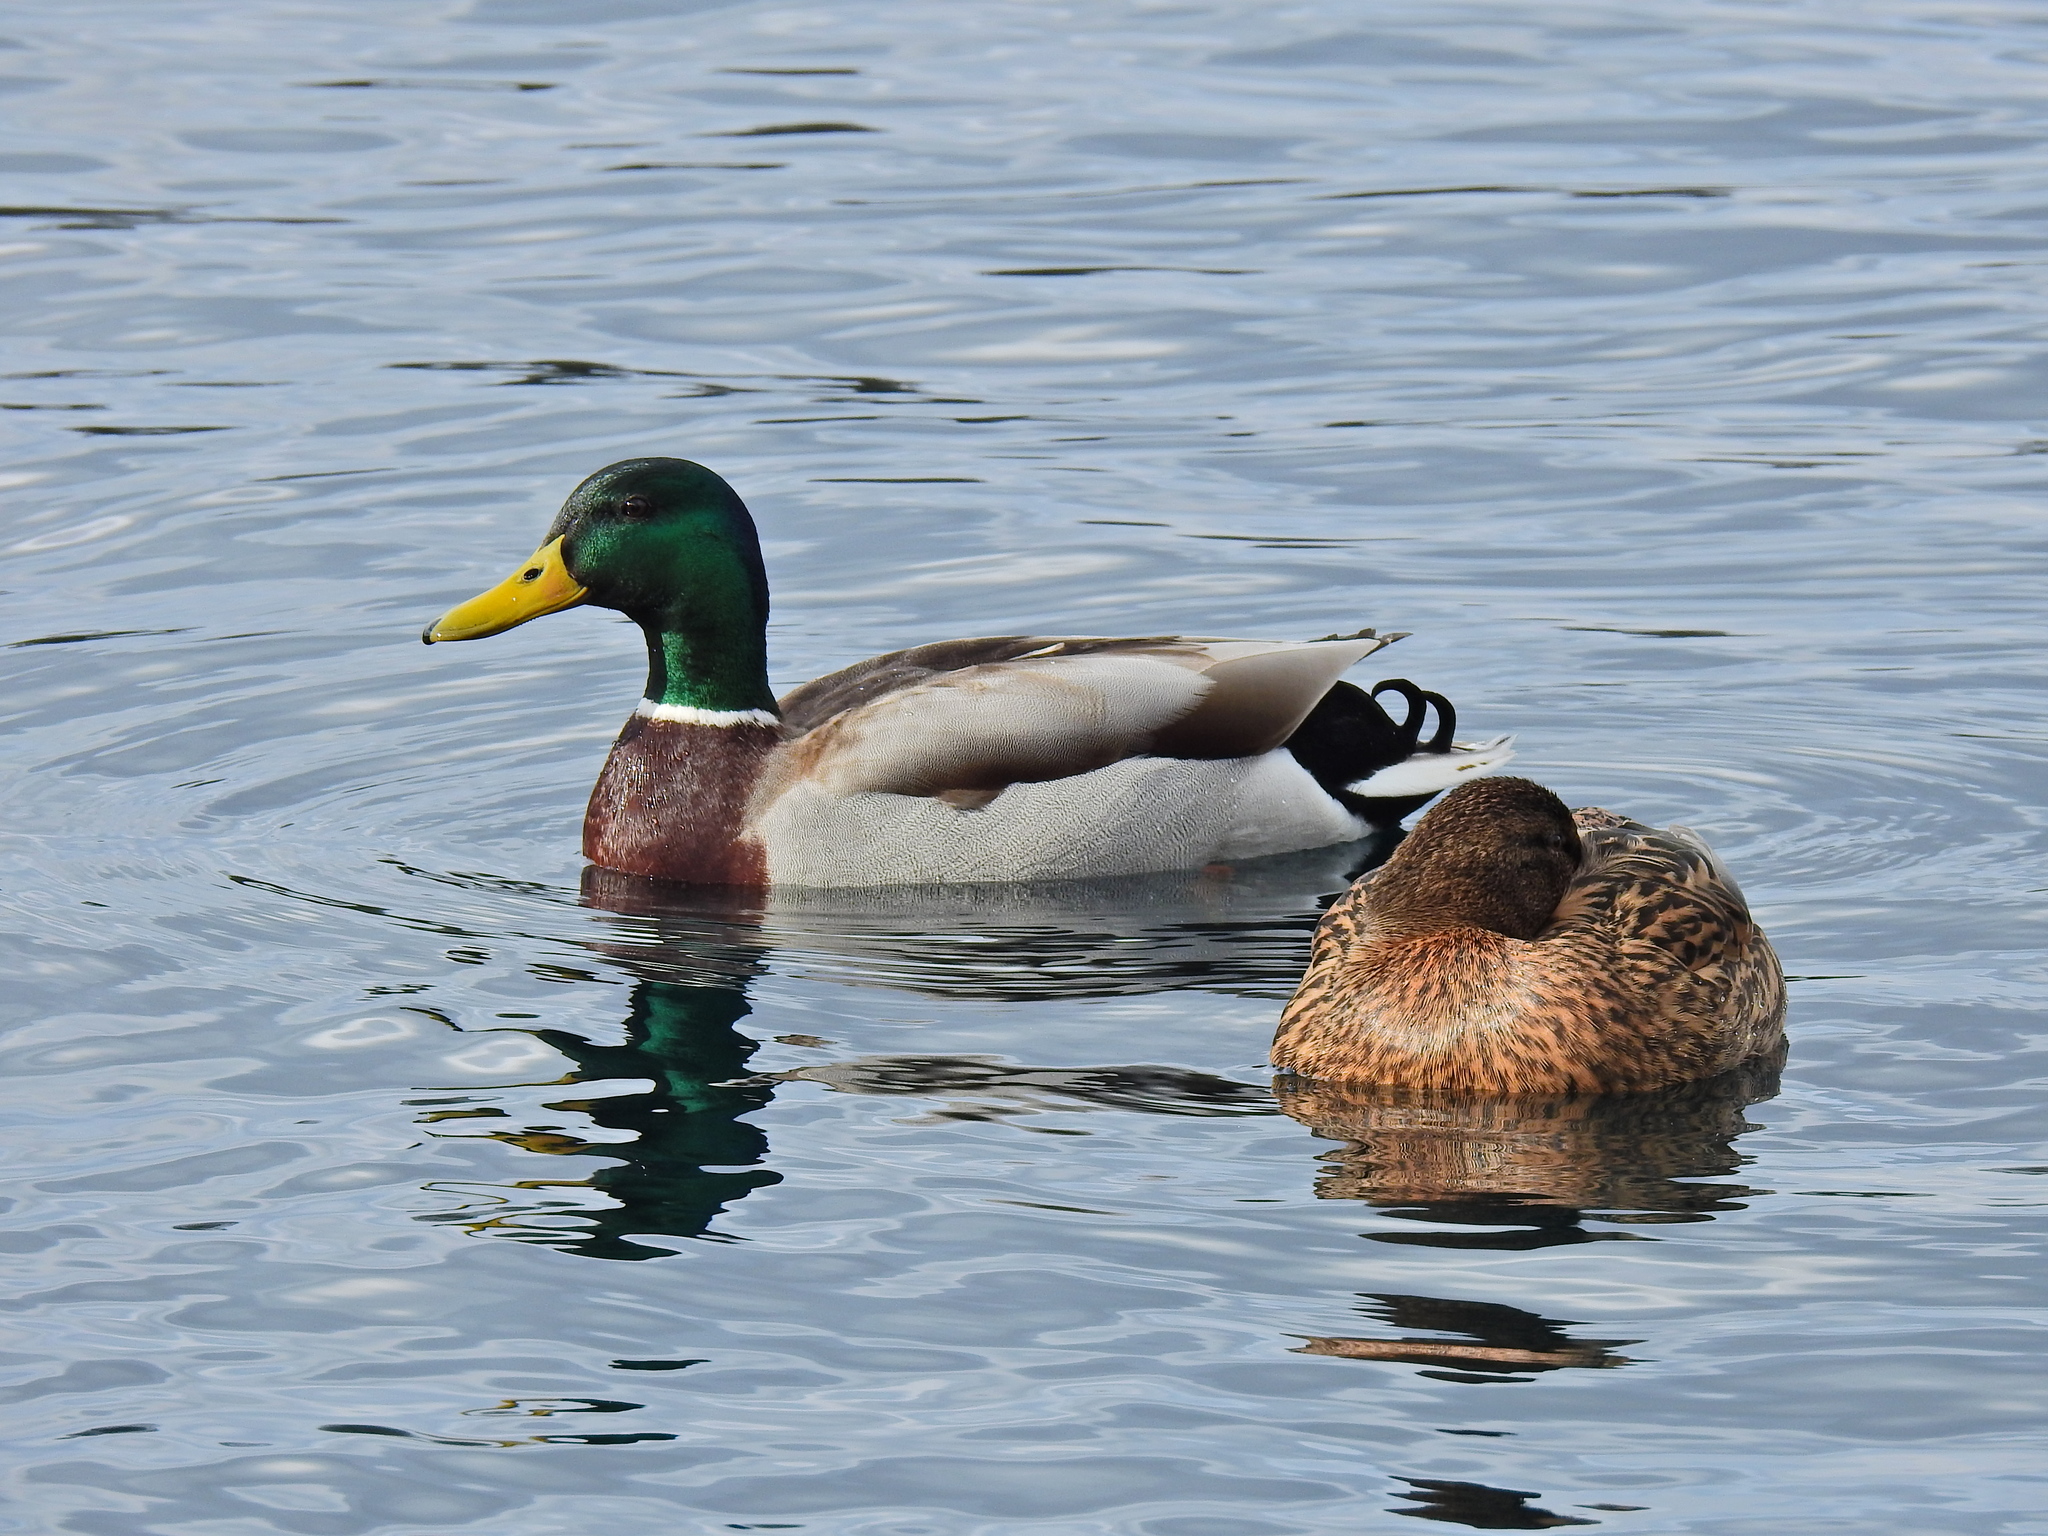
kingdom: Animalia
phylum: Chordata
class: Aves
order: Anseriformes
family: Anatidae
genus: Anas
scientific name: Anas platyrhynchos
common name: Mallard
